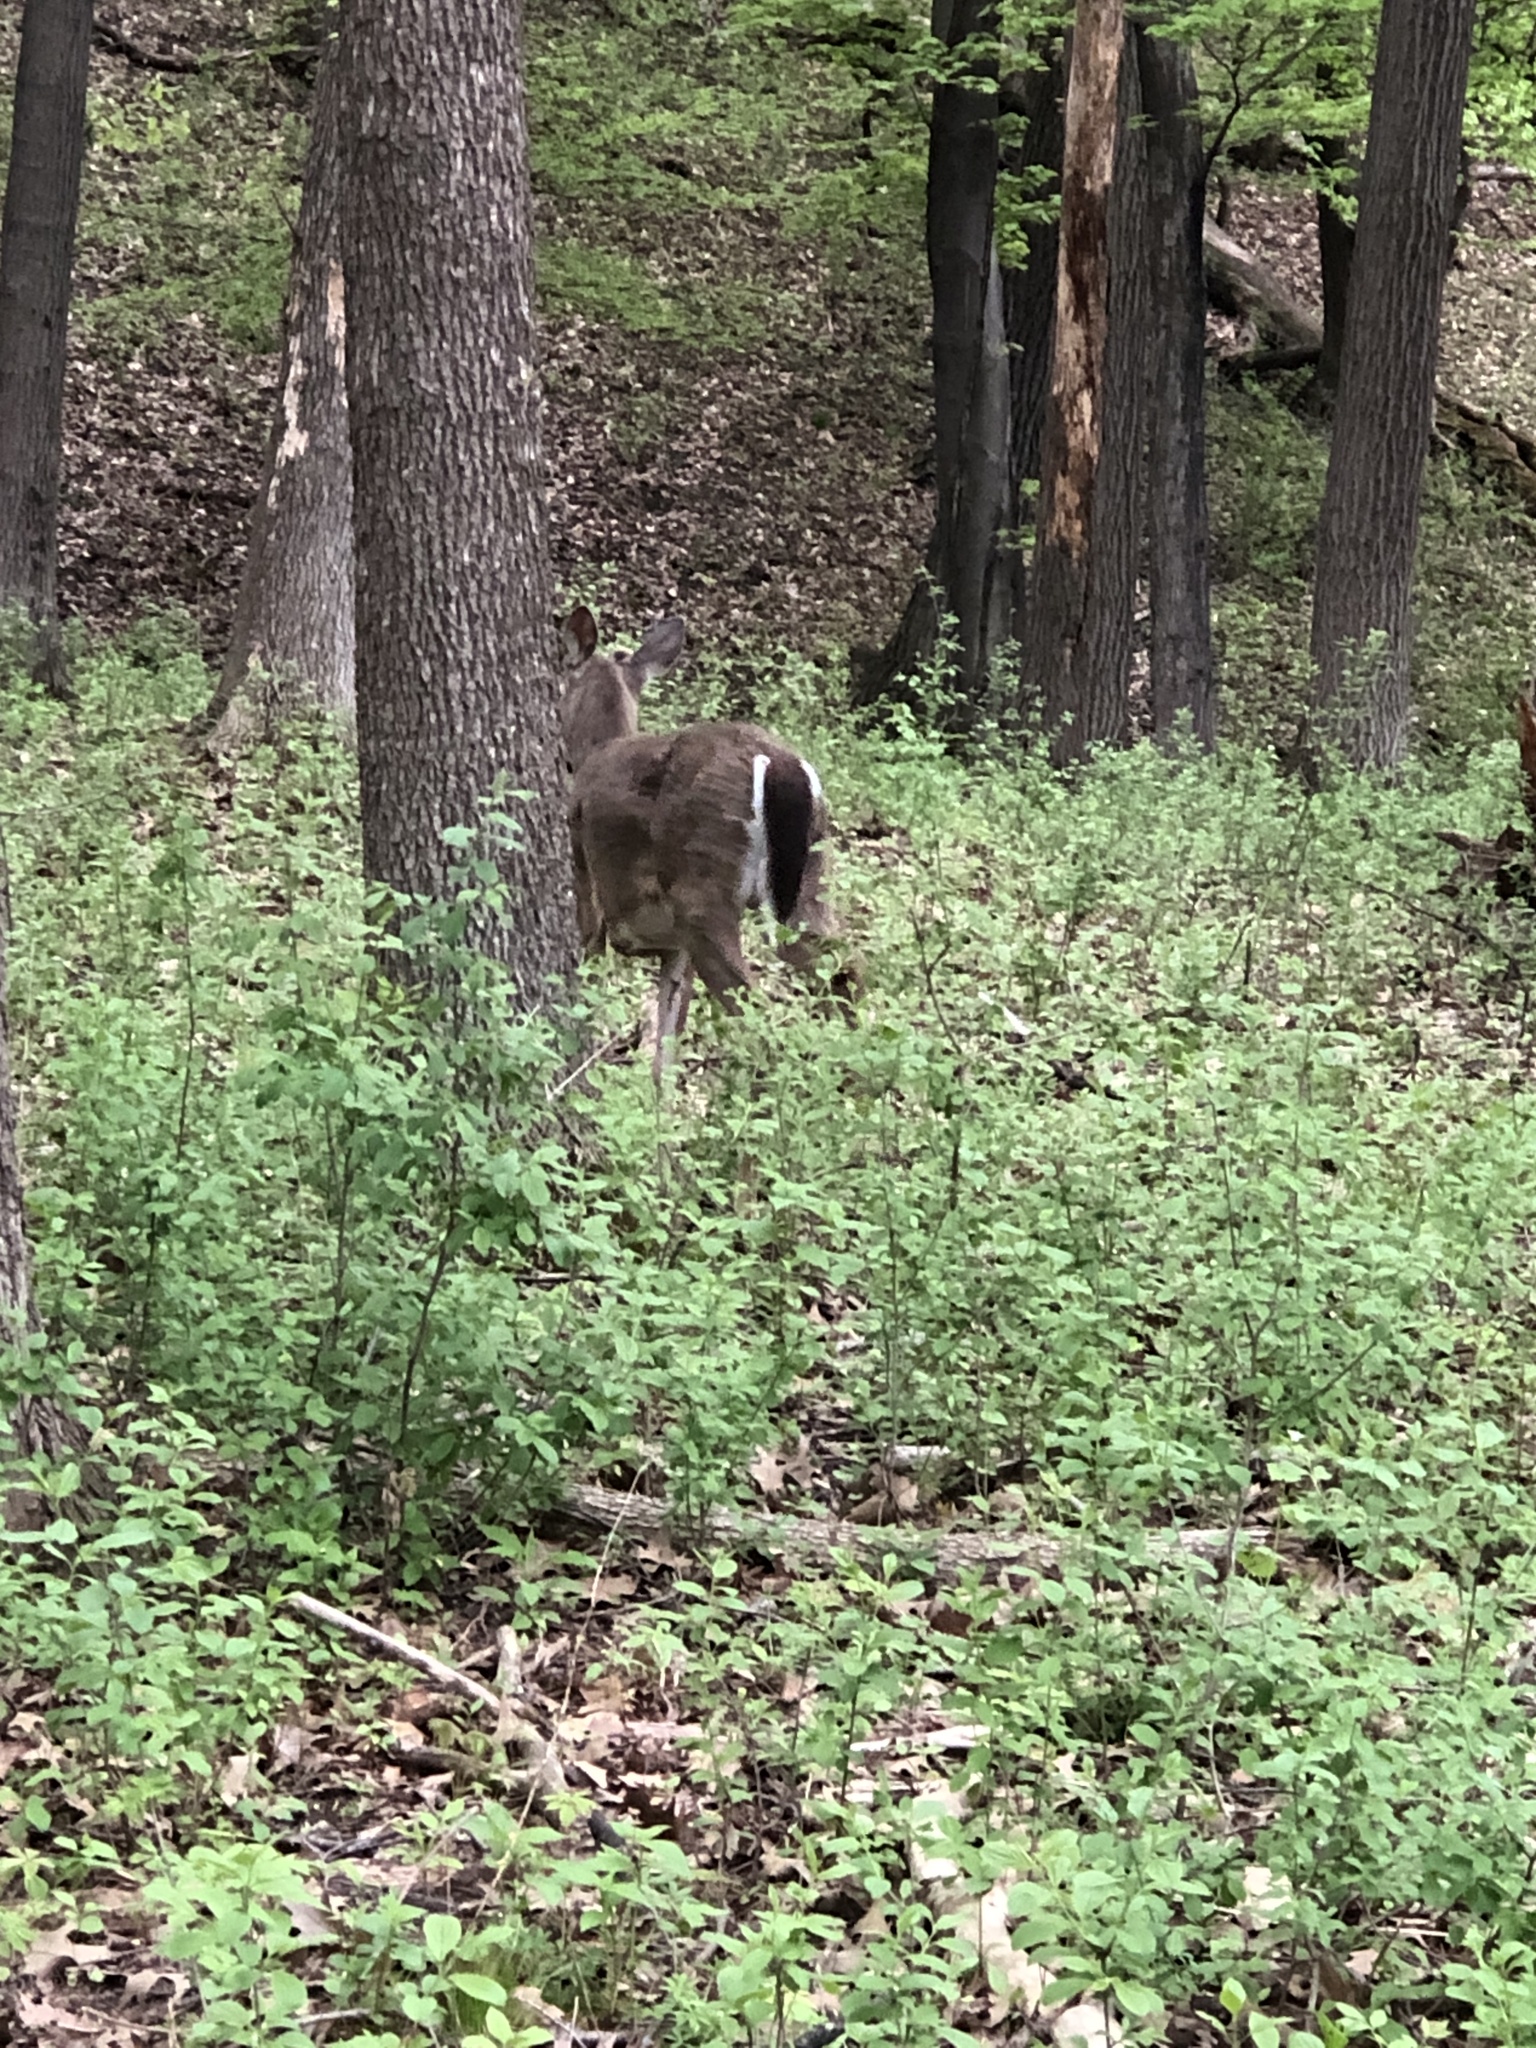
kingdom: Animalia
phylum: Chordata
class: Mammalia
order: Artiodactyla
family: Cervidae
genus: Odocoileus
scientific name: Odocoileus virginianus
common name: White-tailed deer
